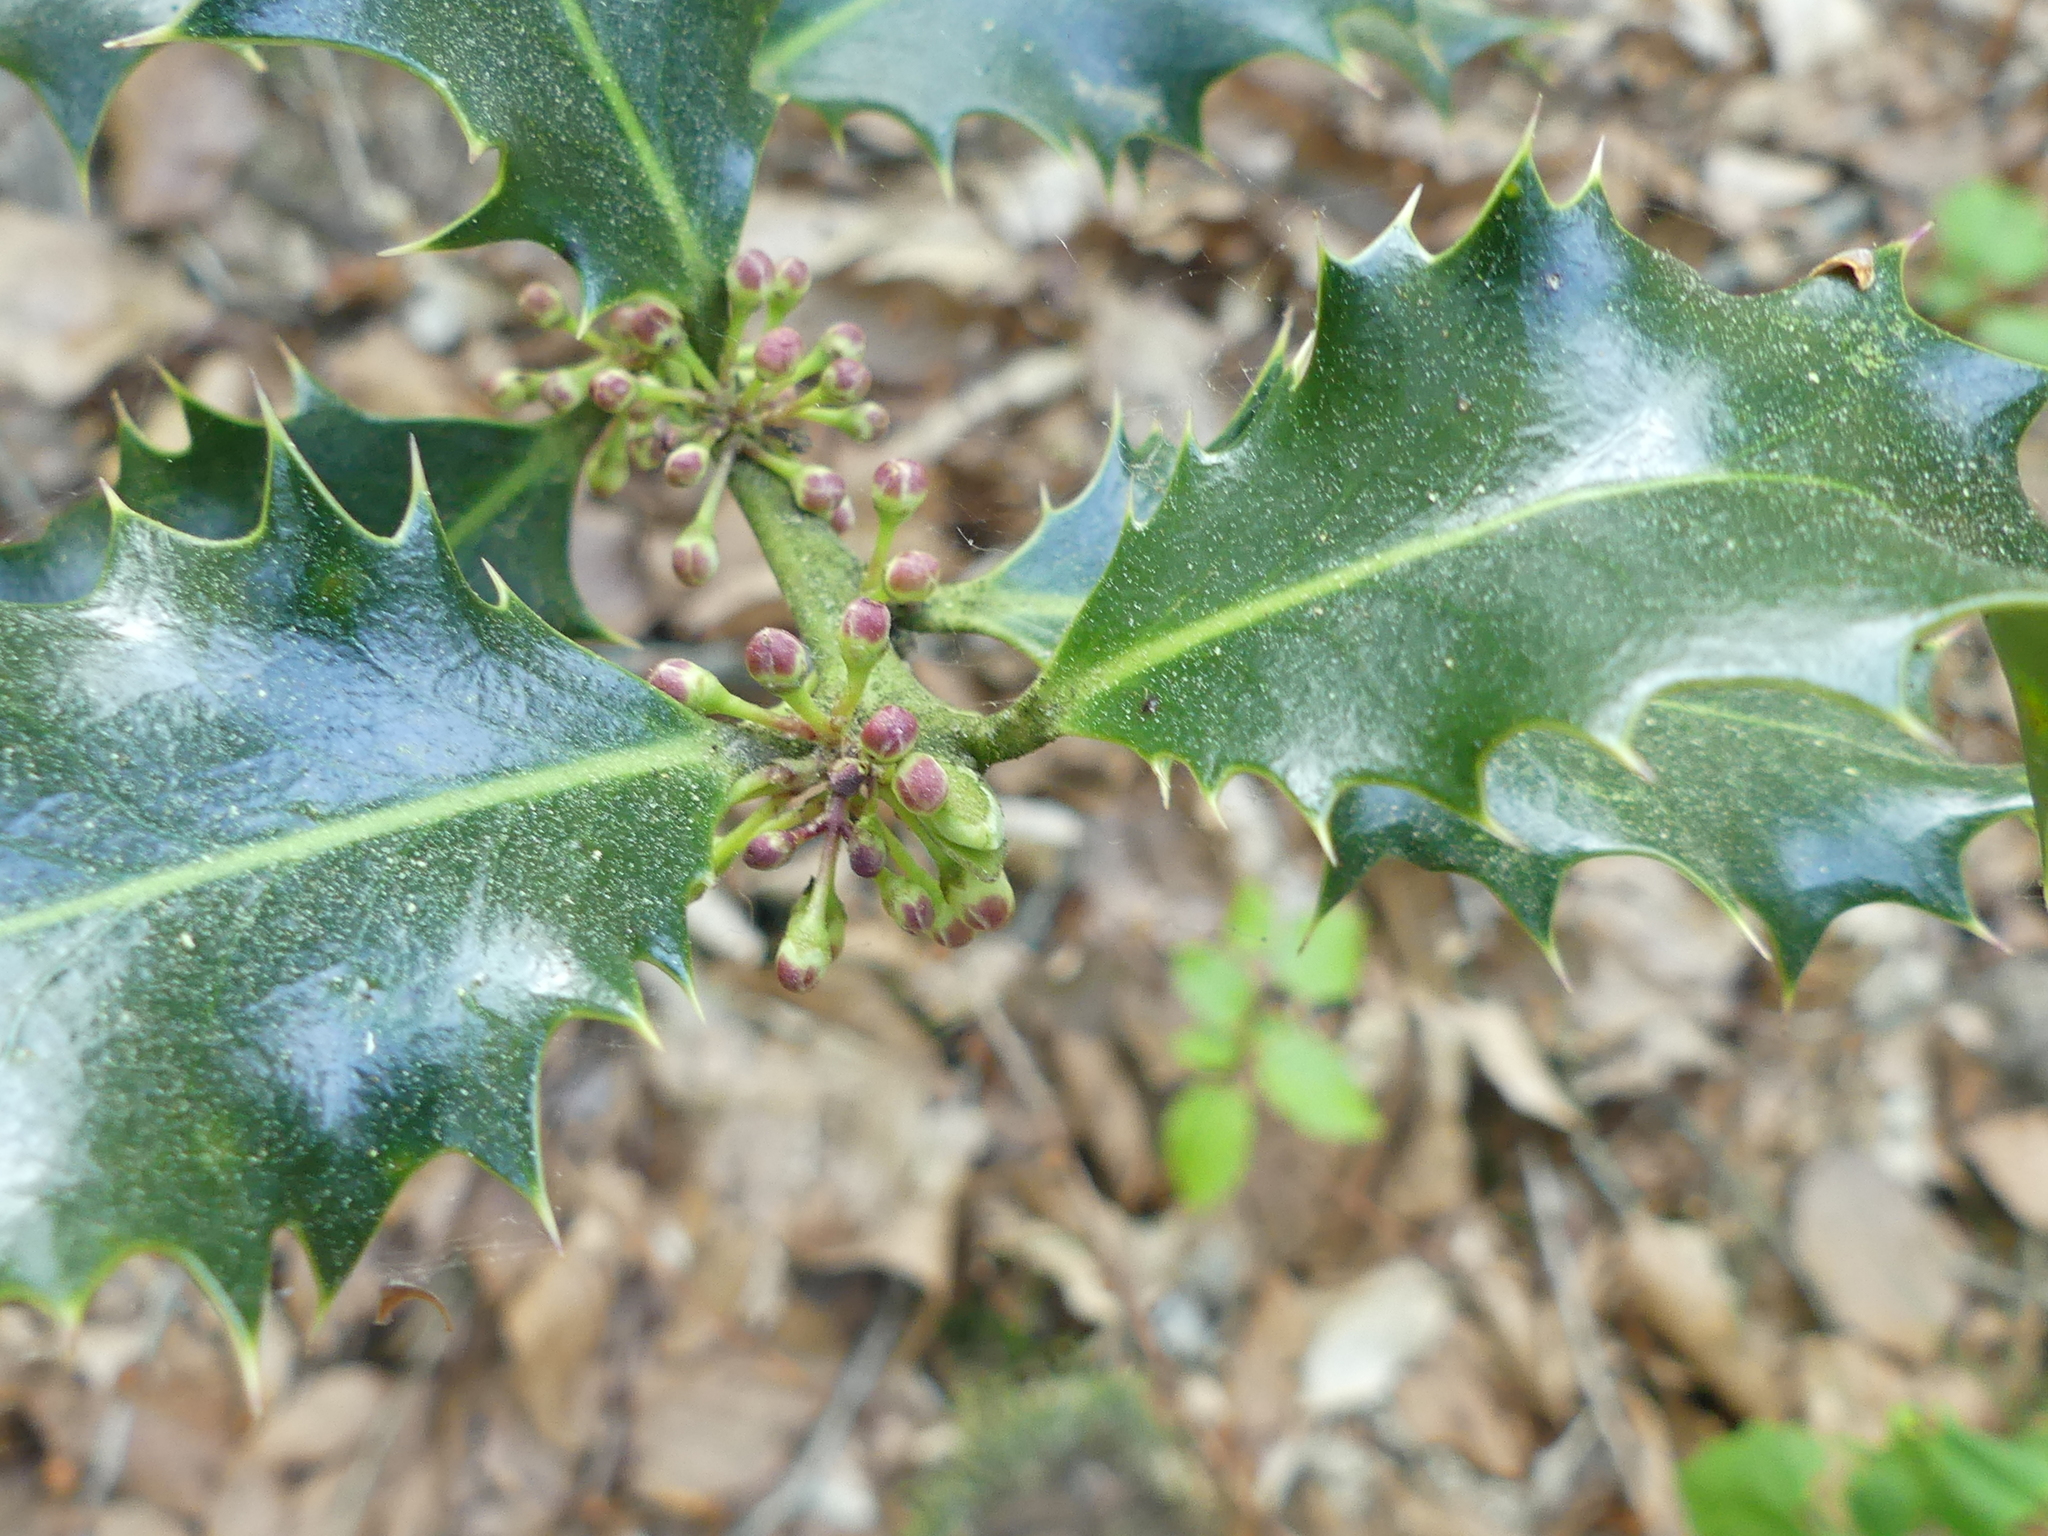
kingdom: Plantae
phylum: Tracheophyta
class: Magnoliopsida
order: Aquifoliales
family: Aquifoliaceae
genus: Ilex
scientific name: Ilex aquifolium
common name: English holly
